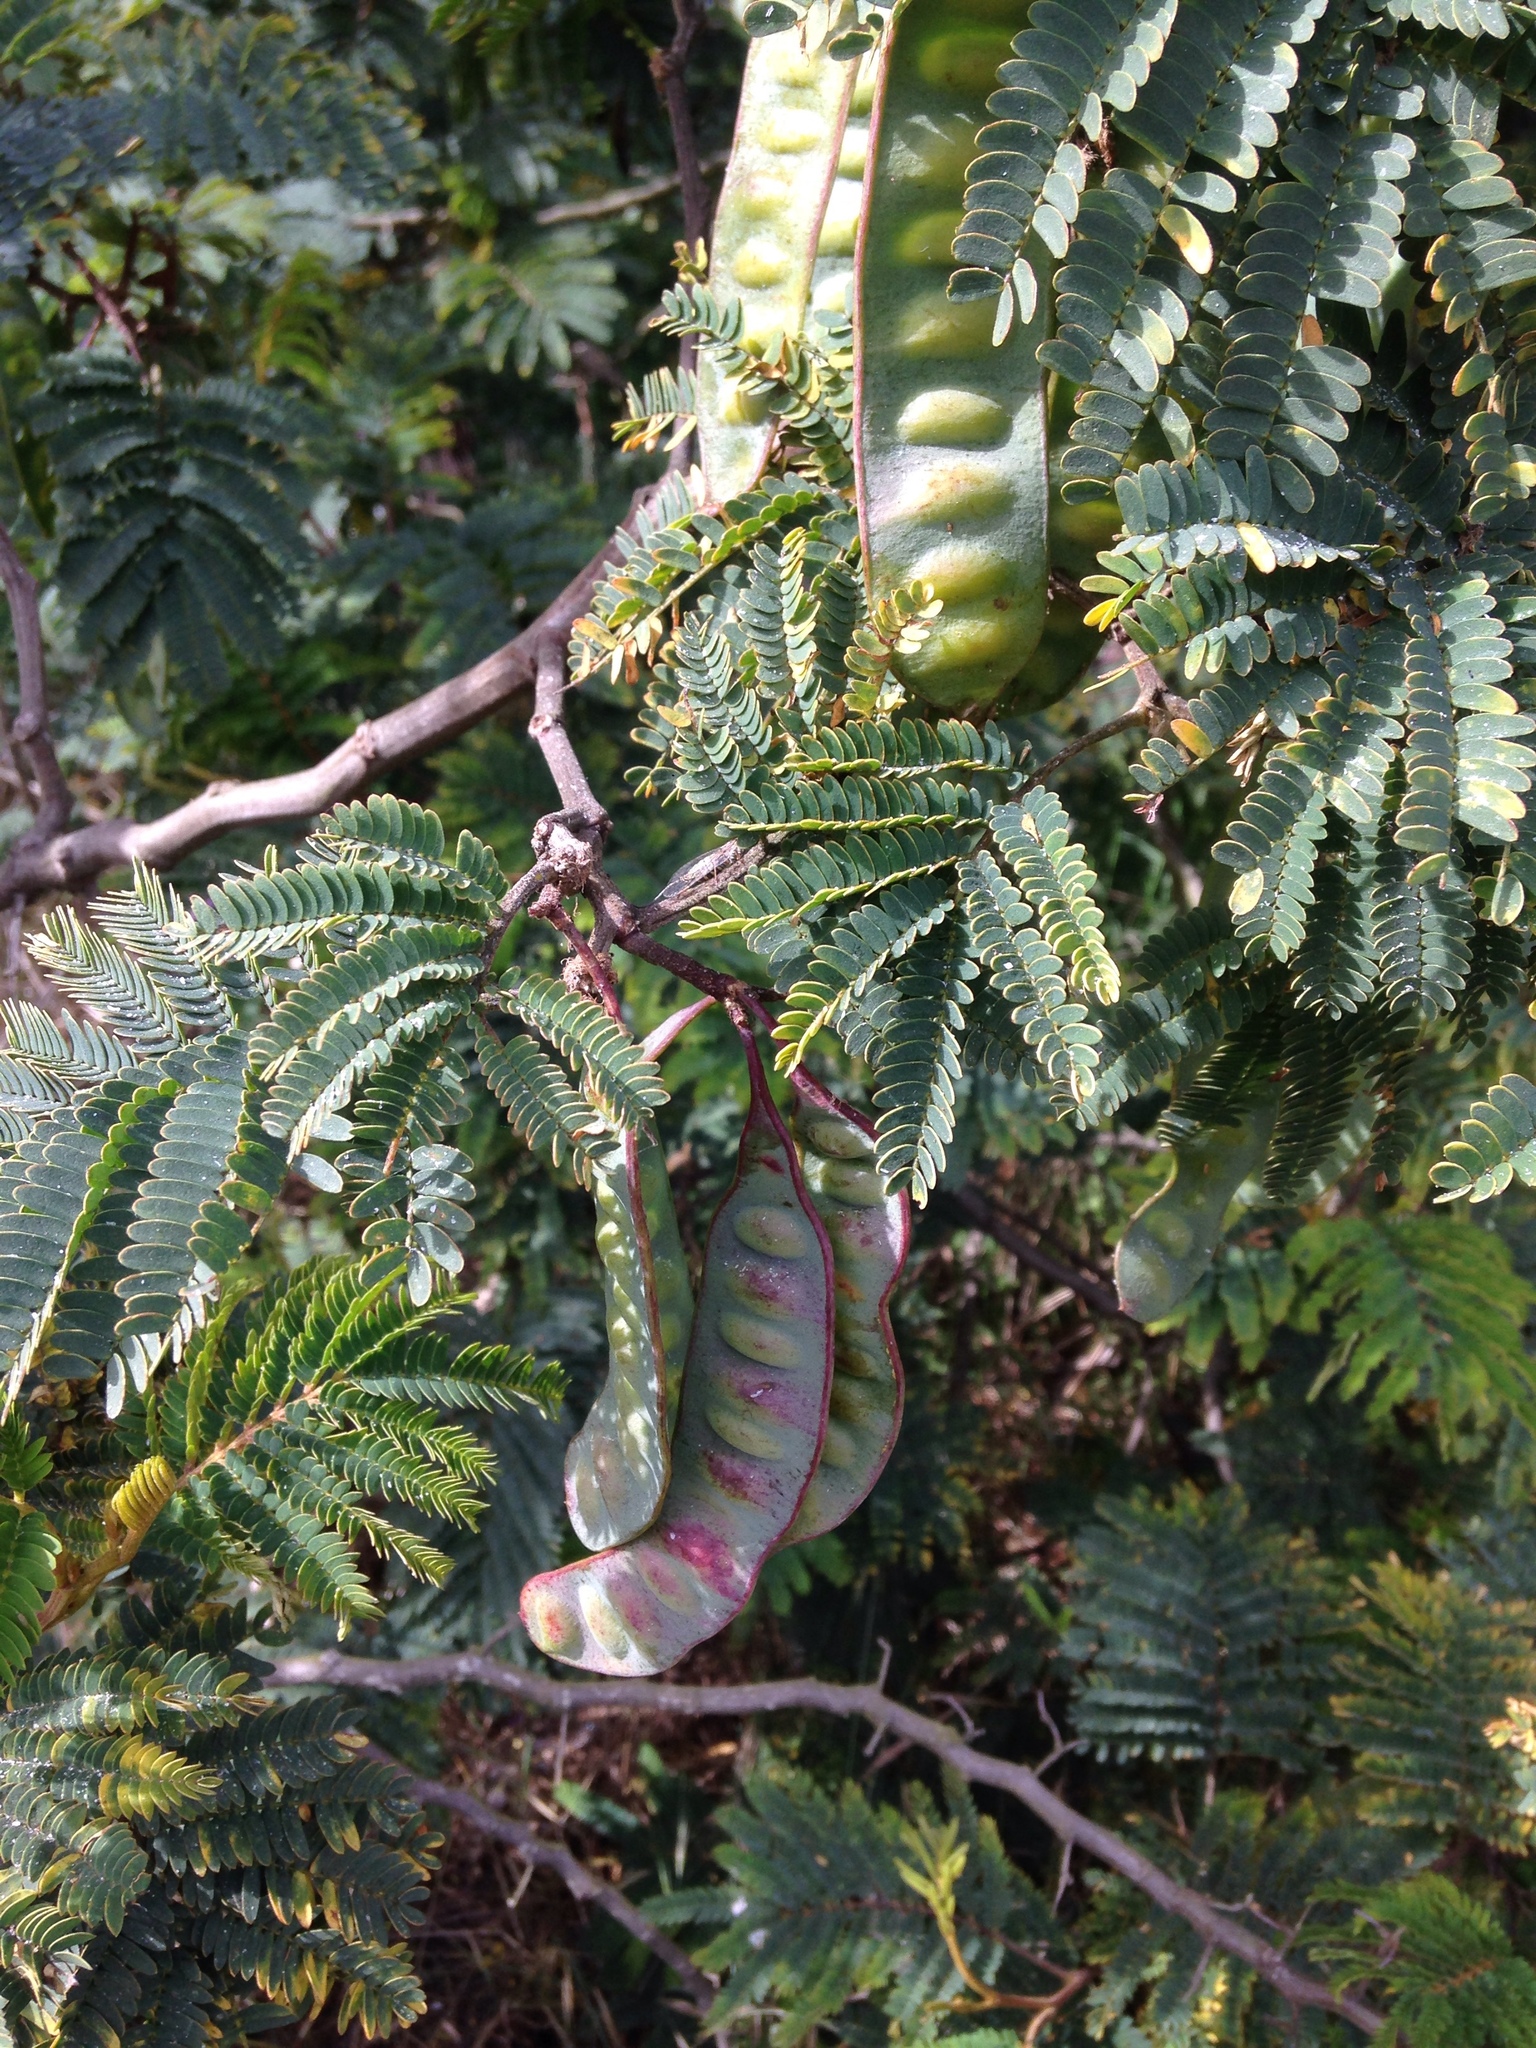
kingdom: Plantae
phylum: Tracheophyta
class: Magnoliopsida
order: Fabales
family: Fabaceae
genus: Paraserianthes
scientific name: Paraserianthes lophantha
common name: Plume albizia
